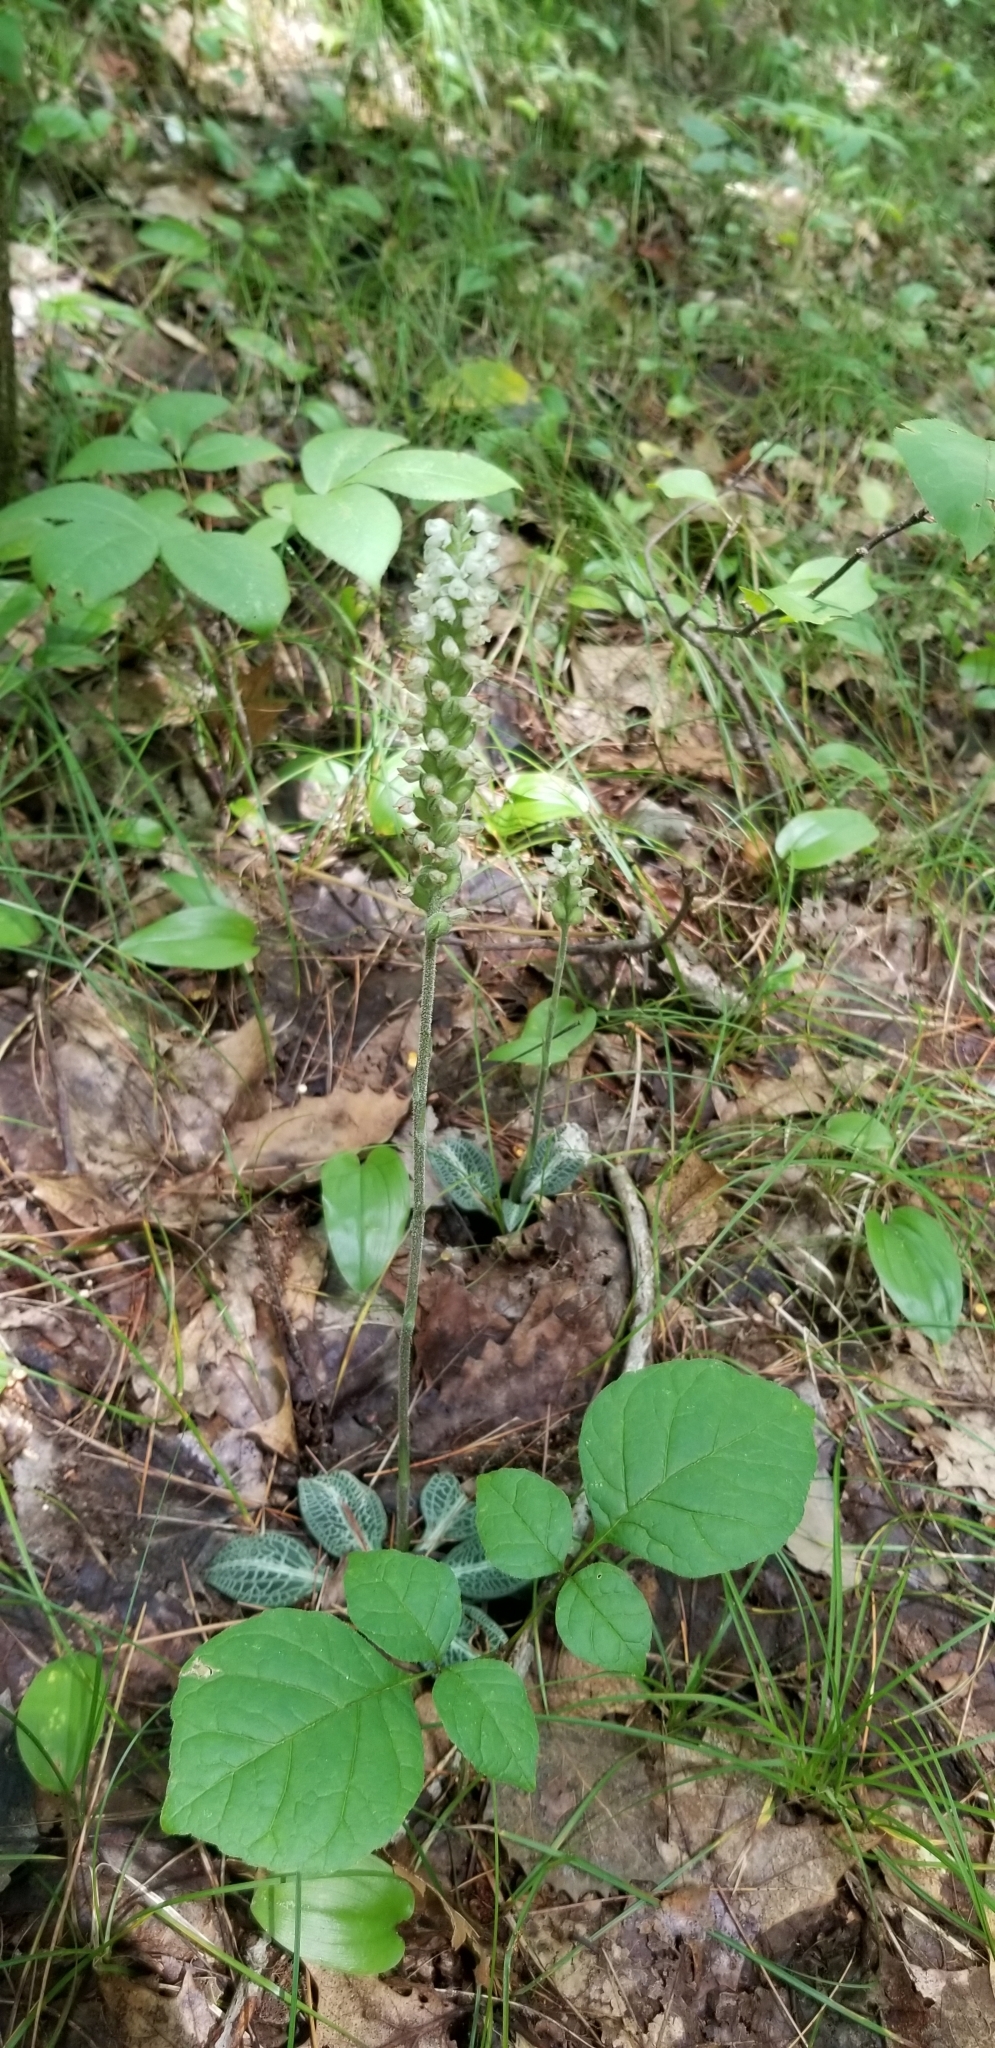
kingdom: Plantae
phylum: Tracheophyta
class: Liliopsida
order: Asparagales
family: Orchidaceae
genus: Goodyera
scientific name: Goodyera pubescens
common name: Downy rattlesnake-plantain
